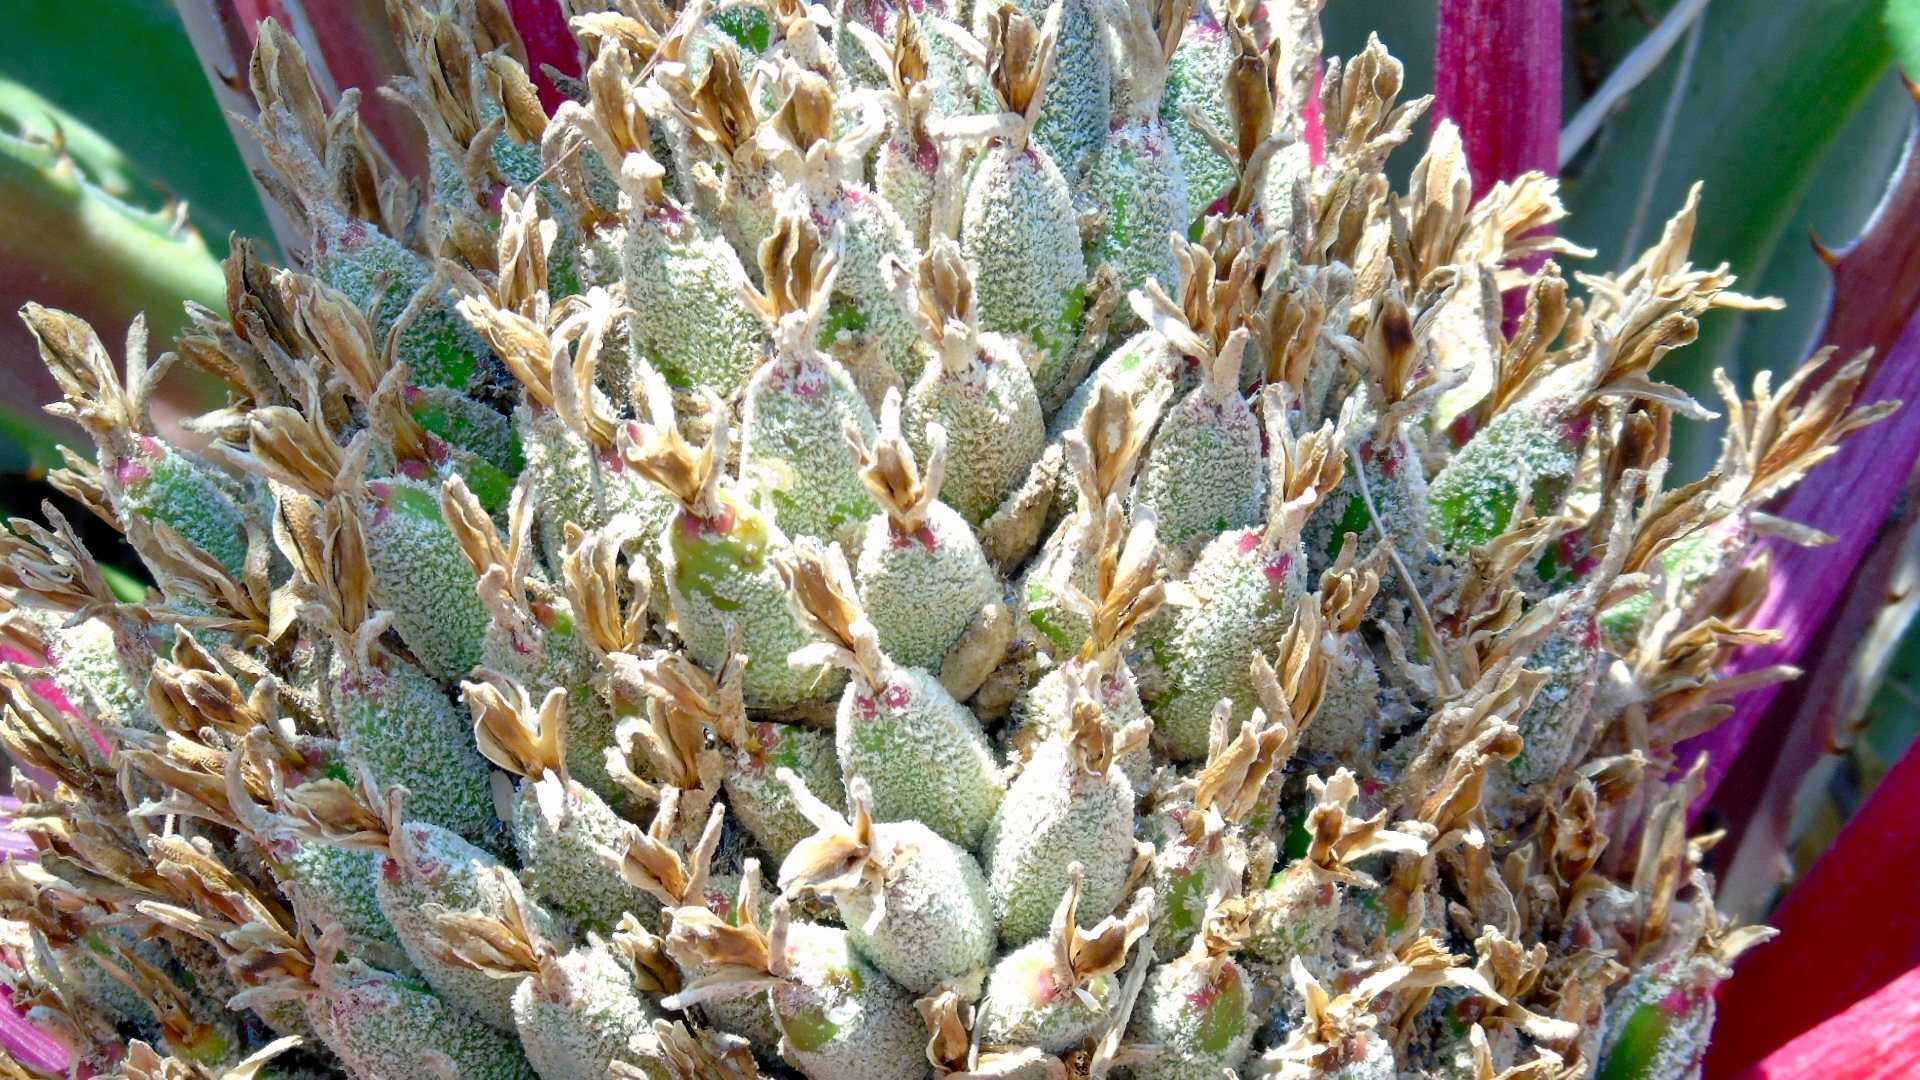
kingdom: Plantae
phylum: Tracheophyta
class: Liliopsida
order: Poales
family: Bromeliaceae
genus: Bromelia
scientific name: Bromelia hemisphaerica
